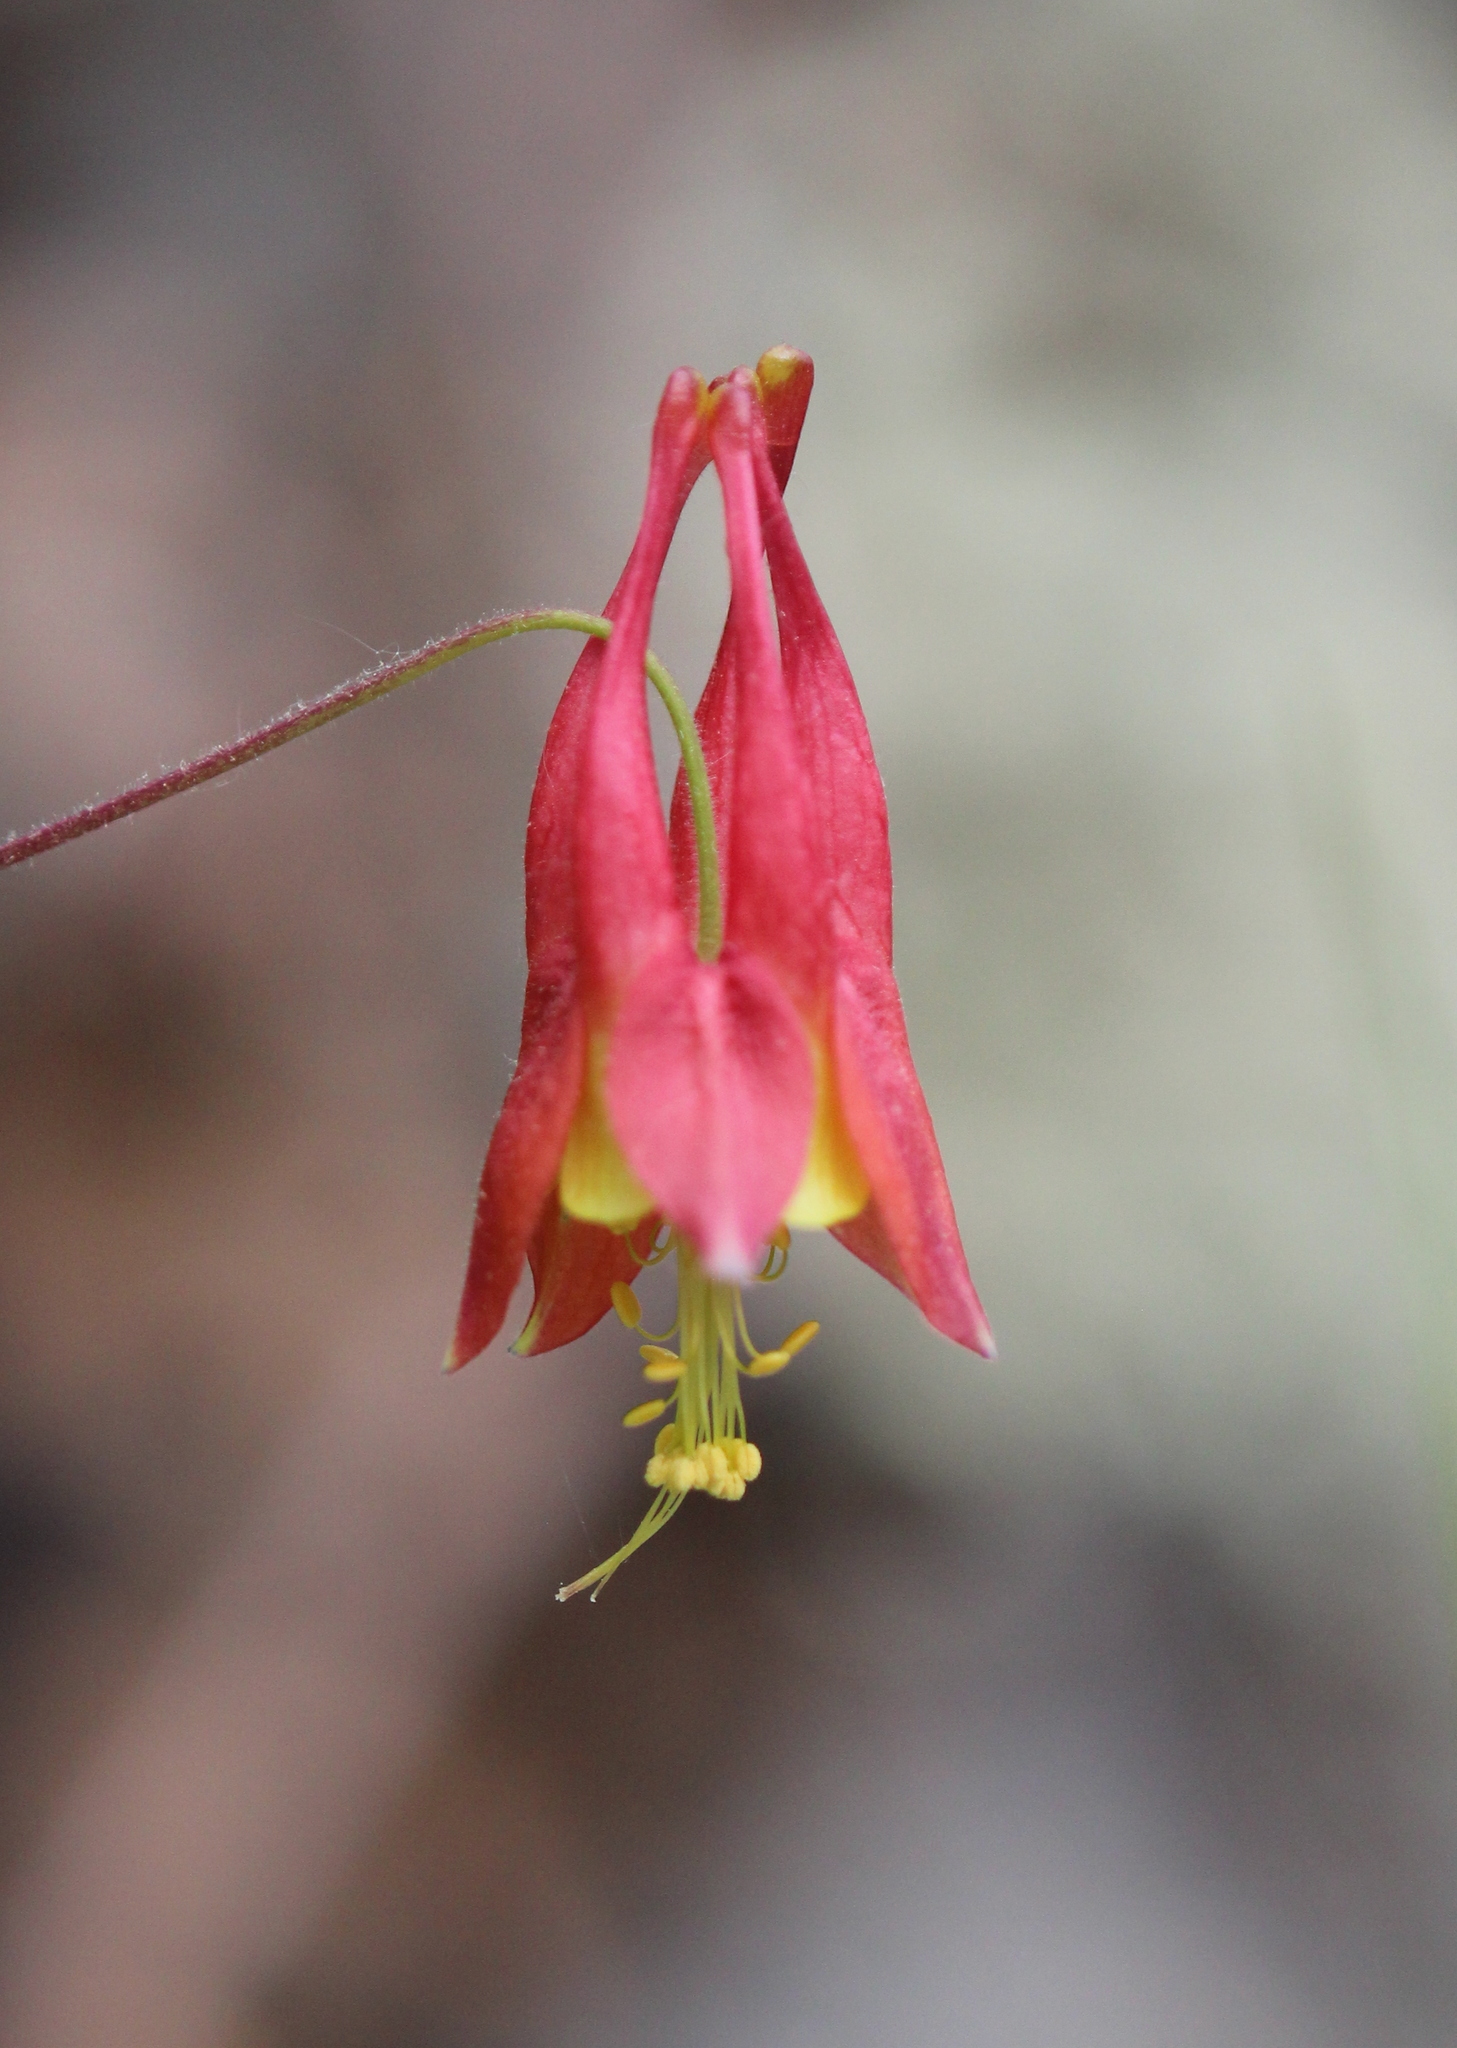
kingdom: Plantae
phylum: Tracheophyta
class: Magnoliopsida
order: Ranunculales
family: Ranunculaceae
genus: Aquilegia
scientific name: Aquilegia canadensis
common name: American columbine
